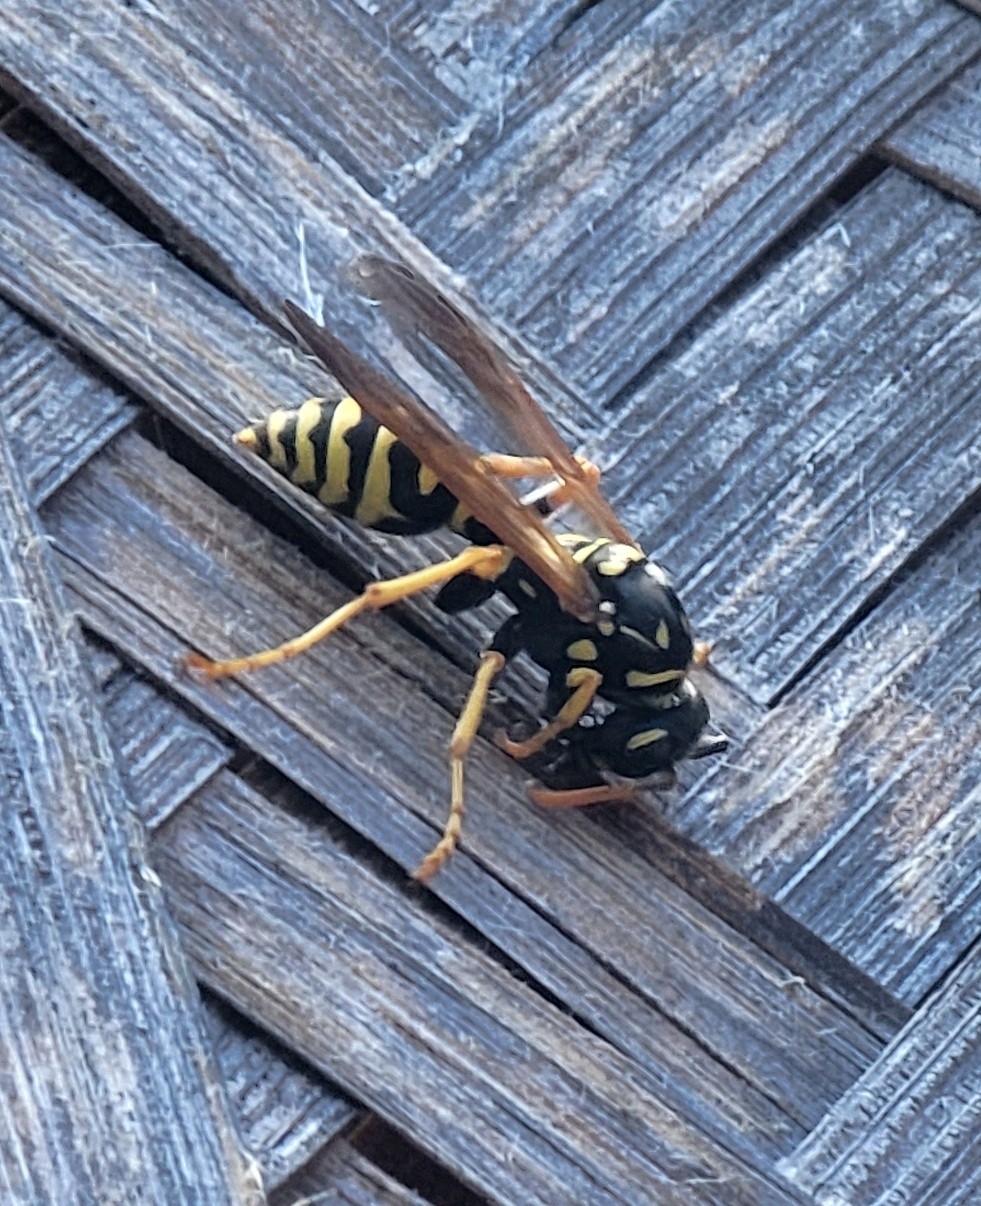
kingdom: Animalia
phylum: Arthropoda
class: Insecta
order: Hymenoptera
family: Eumenidae
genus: Polistes
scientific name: Polistes dominula
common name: Paper wasp
